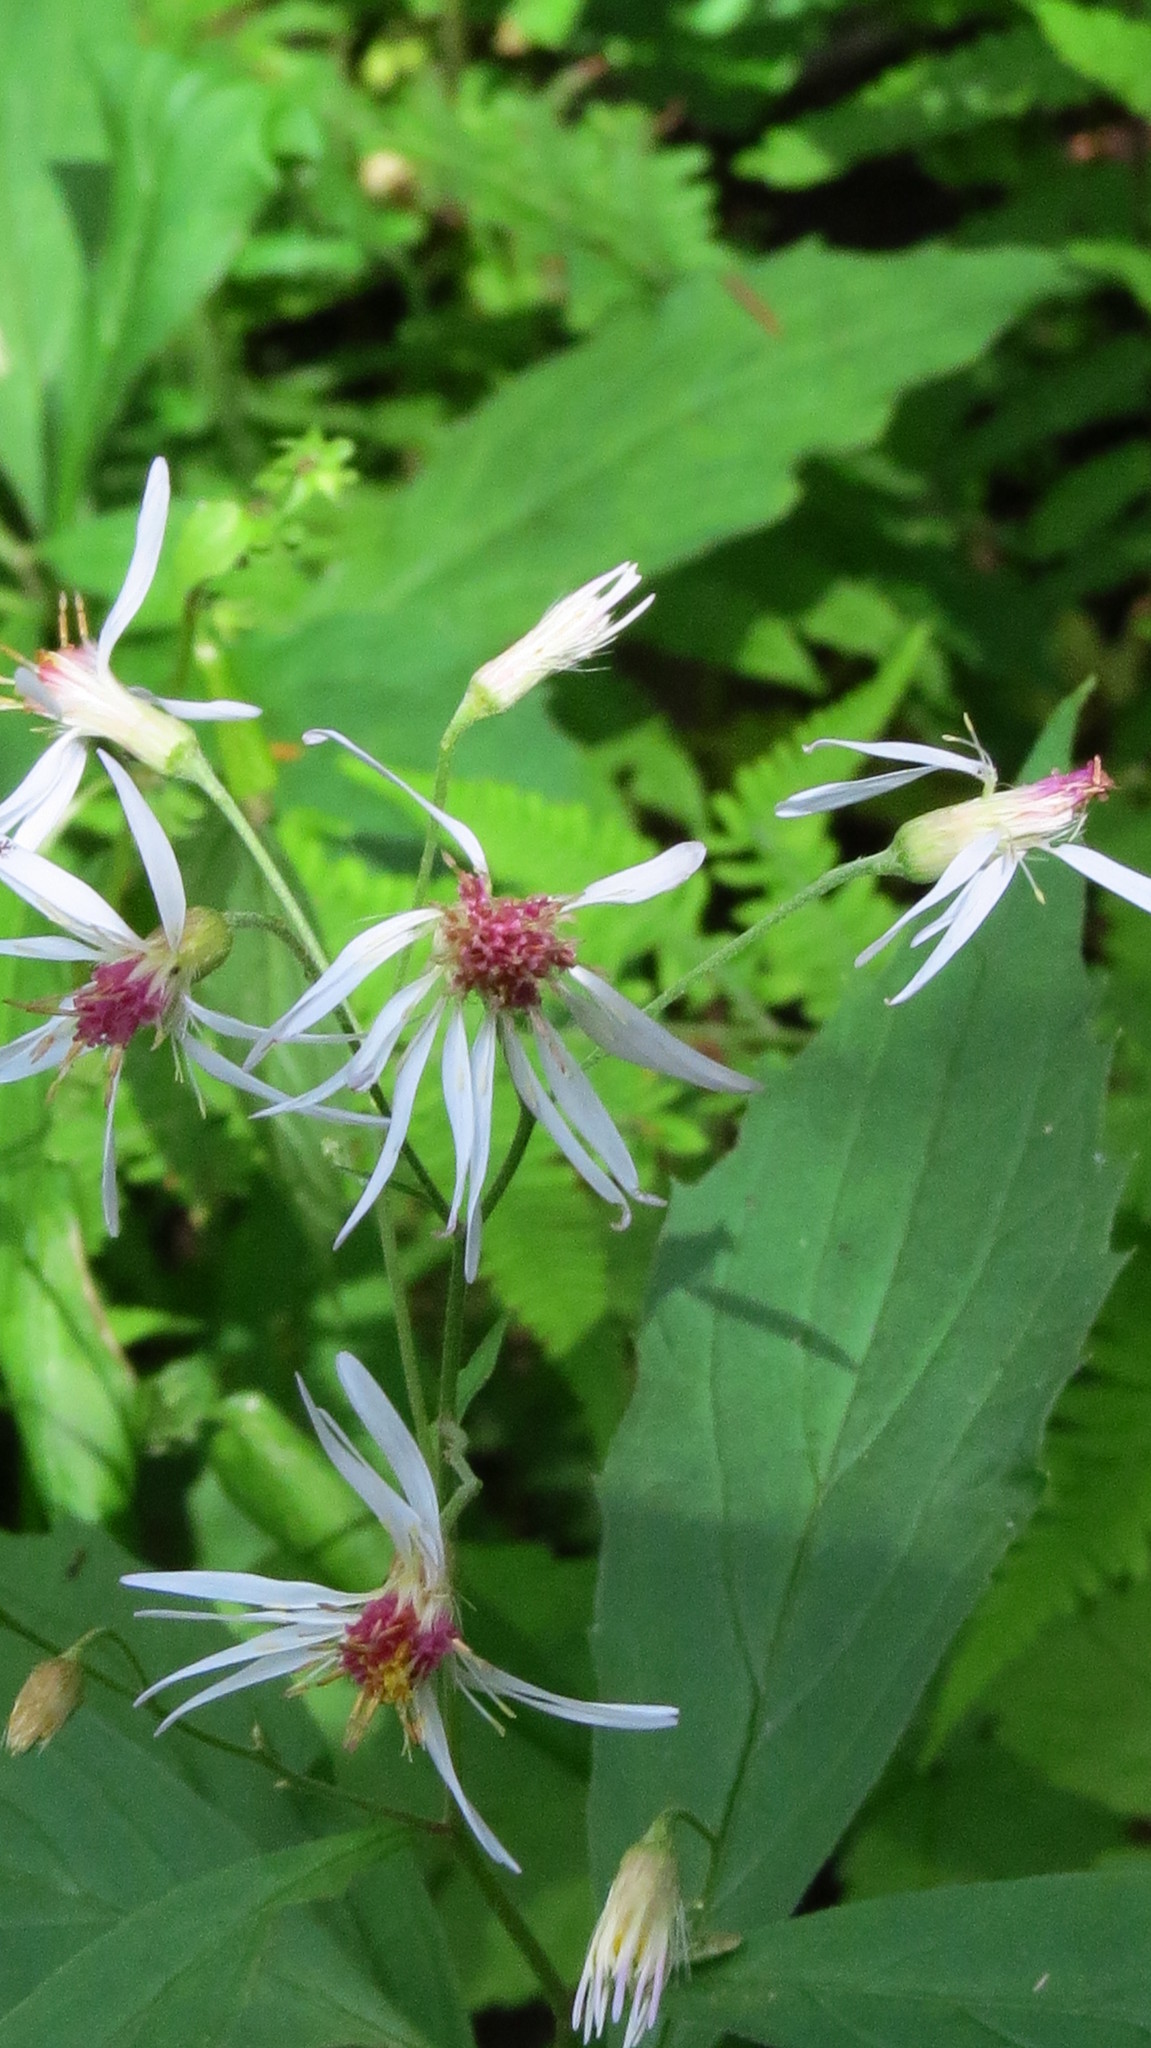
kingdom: Plantae
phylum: Tracheophyta
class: Magnoliopsida
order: Asterales
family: Asteraceae
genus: Oclemena
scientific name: Oclemena acuminata
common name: Mountain aster
